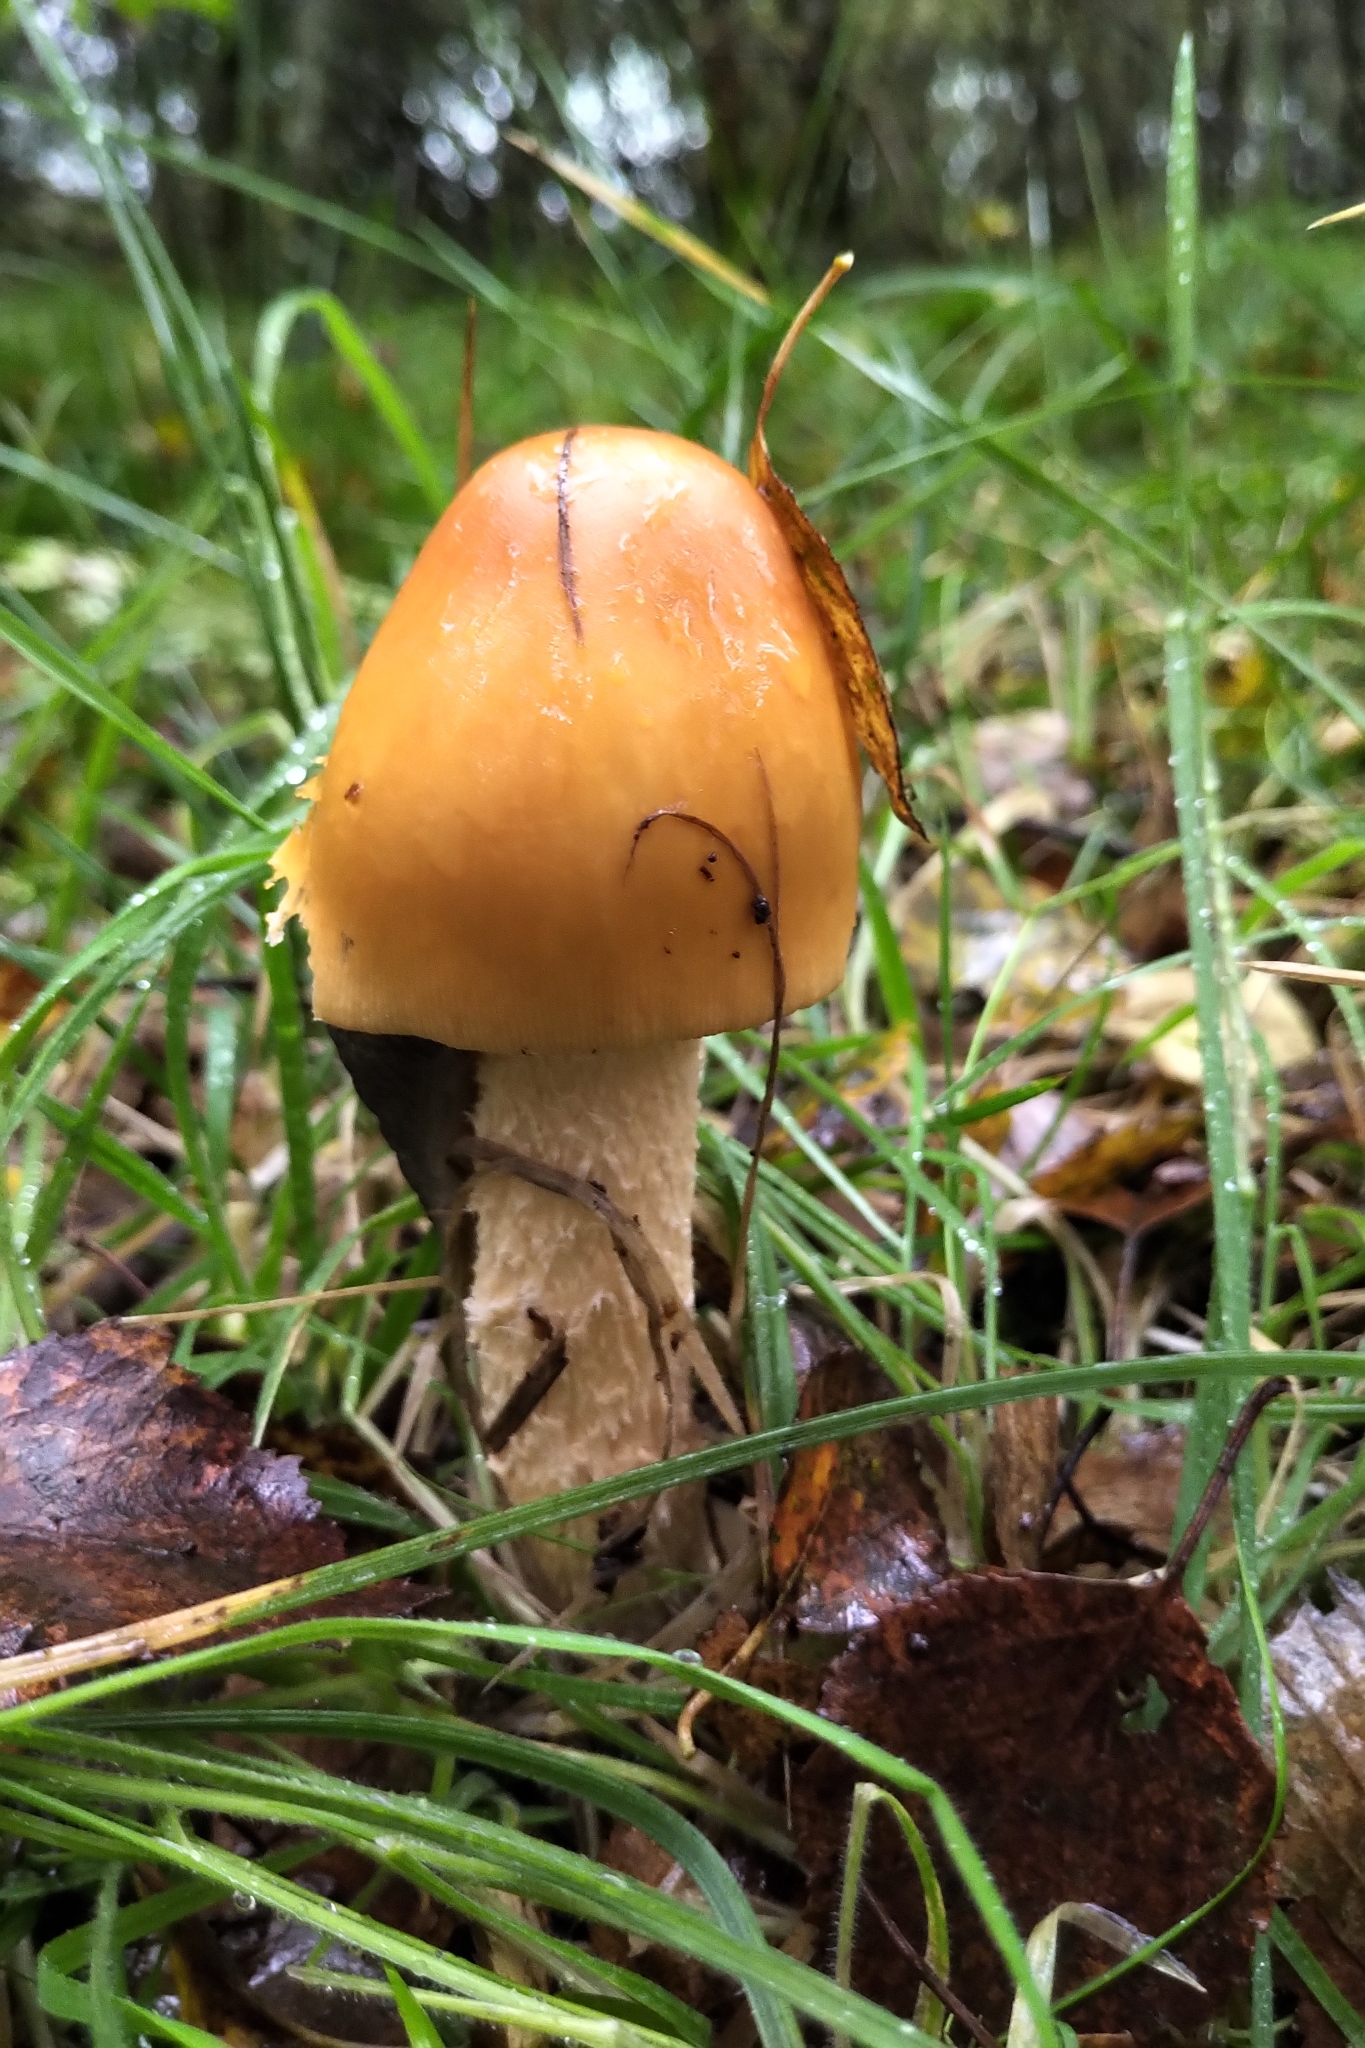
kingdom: Fungi
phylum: Basidiomycota
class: Agaricomycetes
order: Agaricales
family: Amanitaceae
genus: Amanita
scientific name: Amanita crocea
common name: Orange grisette
